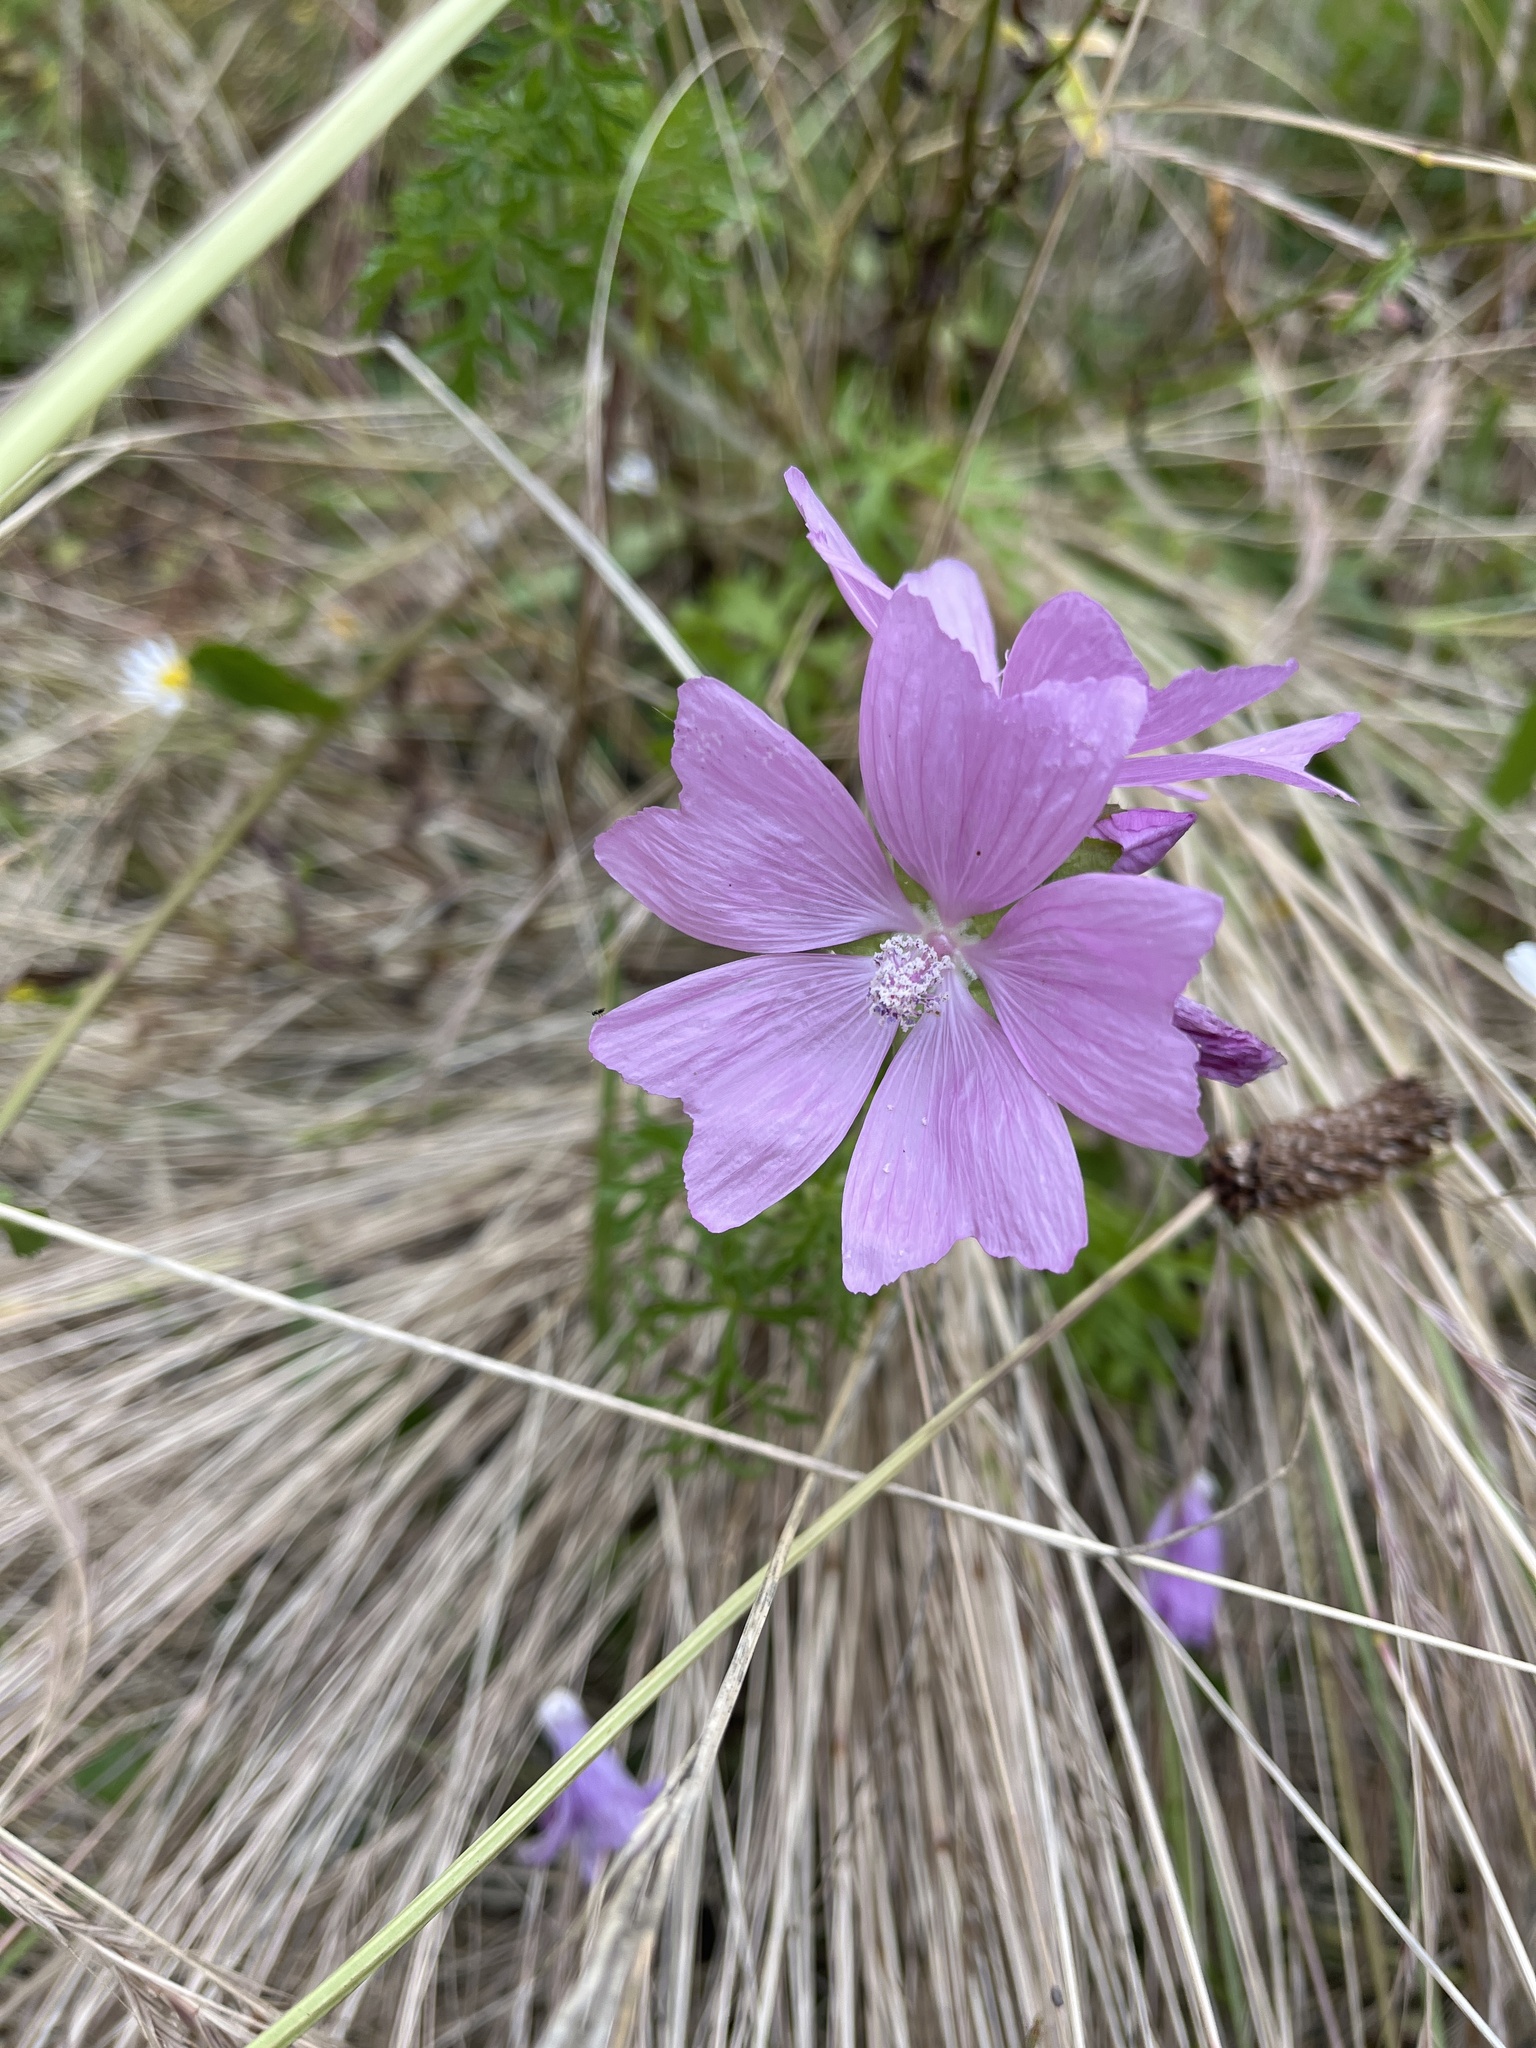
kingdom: Plantae
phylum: Tracheophyta
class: Magnoliopsida
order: Malvales
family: Malvaceae
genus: Malva
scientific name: Malva moschata
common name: Musk mallow
